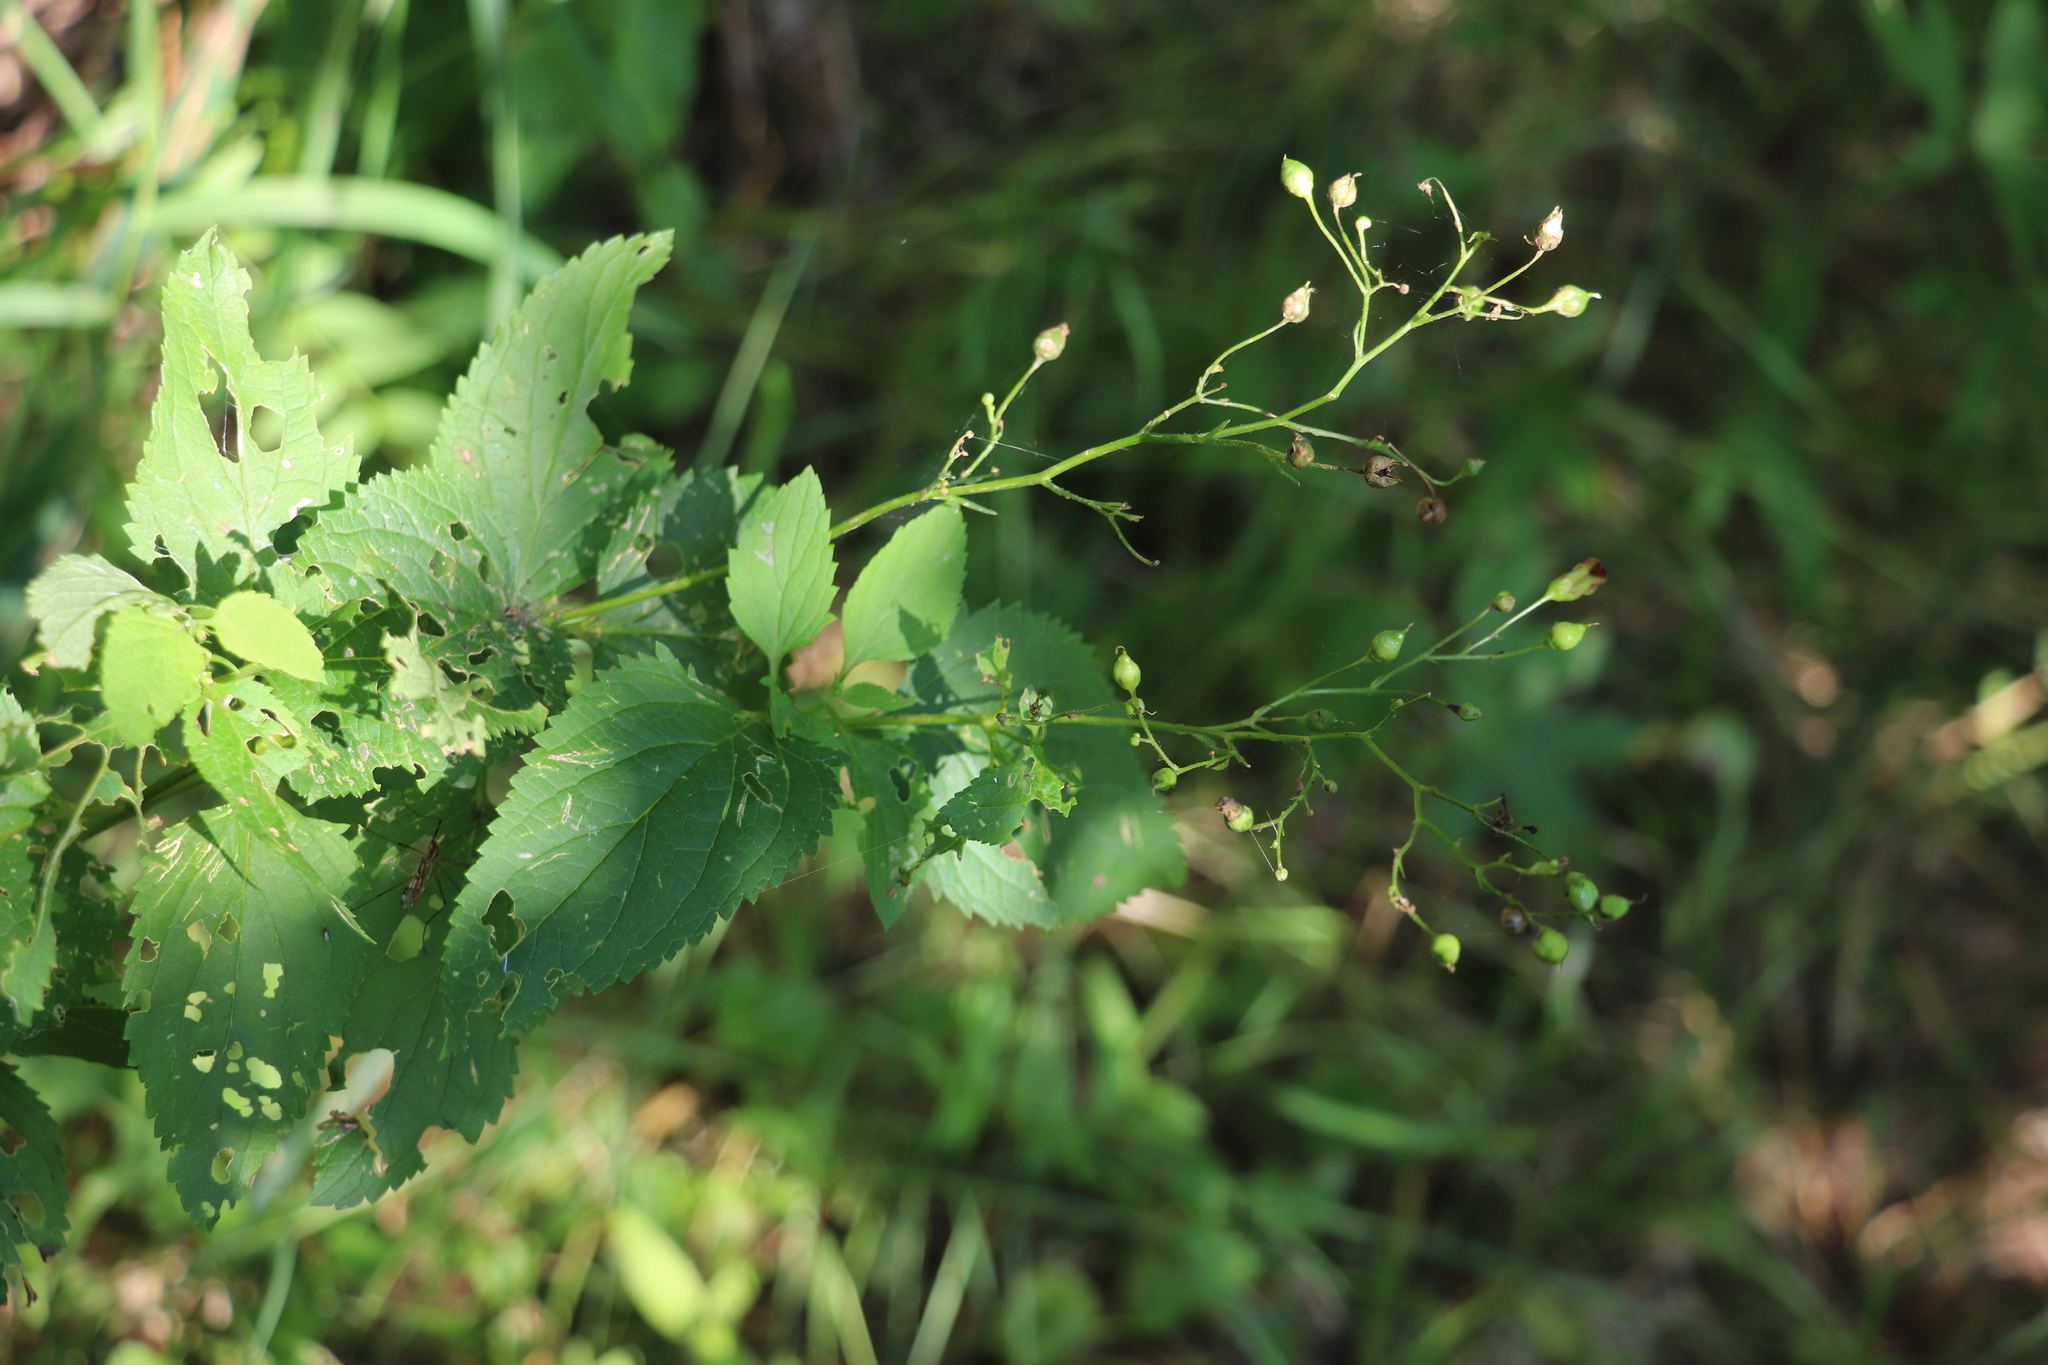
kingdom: Plantae
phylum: Tracheophyta
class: Magnoliopsida
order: Lamiales
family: Scrophulariaceae
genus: Scrophularia
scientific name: Scrophularia nodosa
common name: Common figwort
